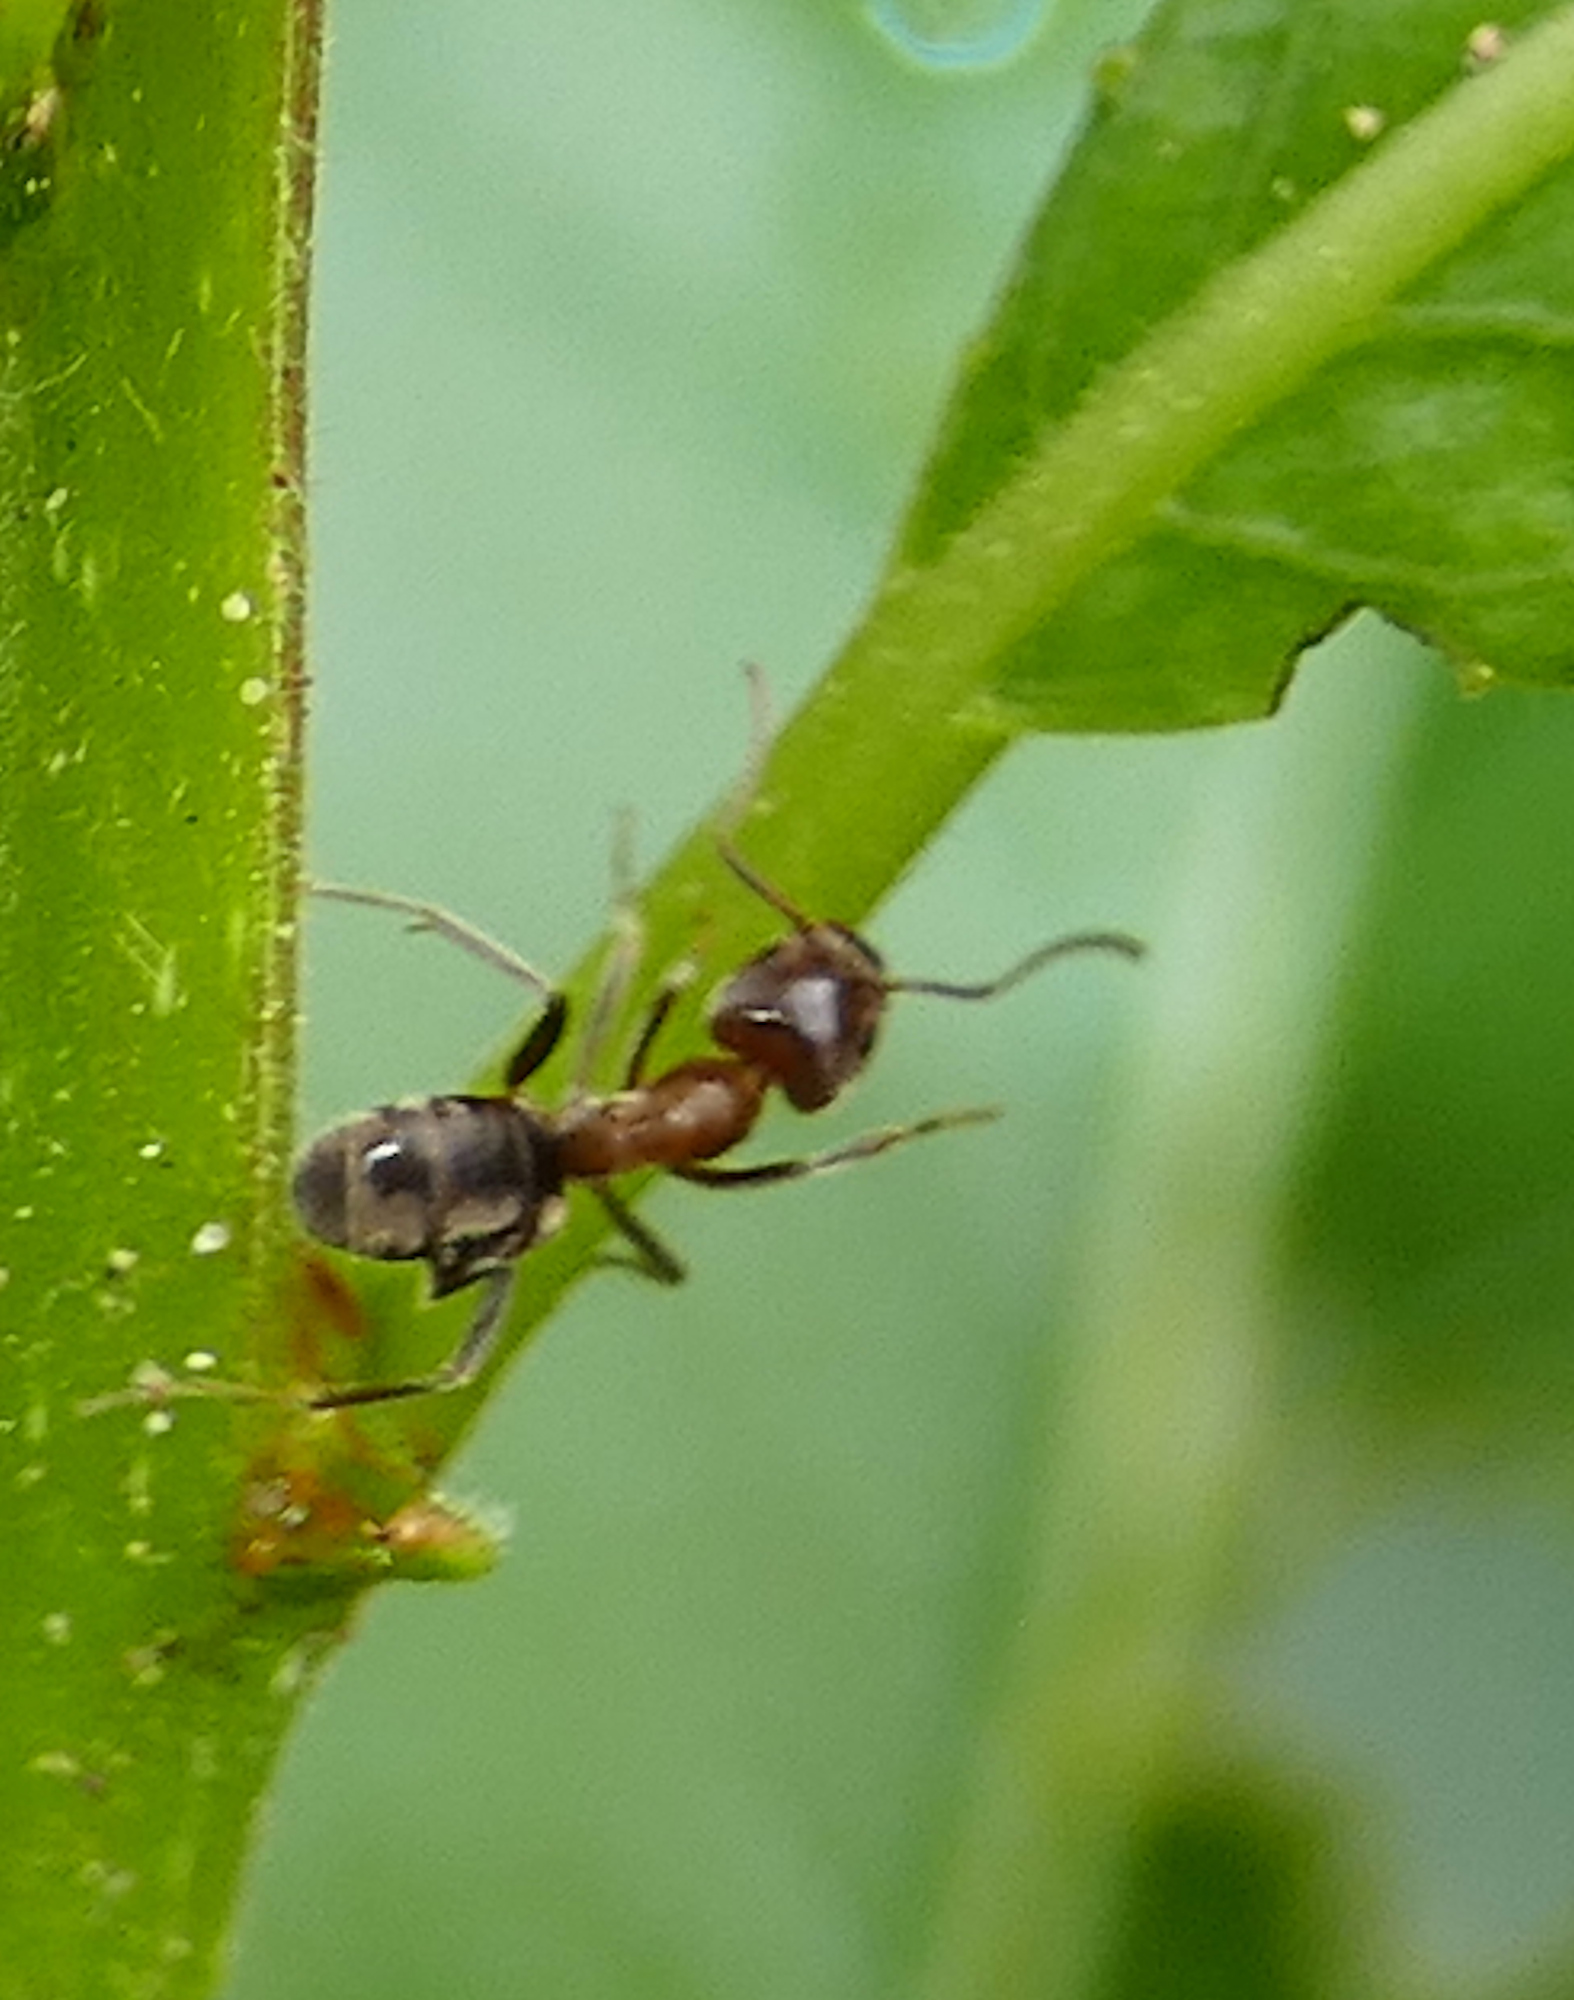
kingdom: Animalia
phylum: Arthropoda
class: Insecta
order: Hymenoptera
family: Formicidae
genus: Liometopum
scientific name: Liometopum apiculatum
